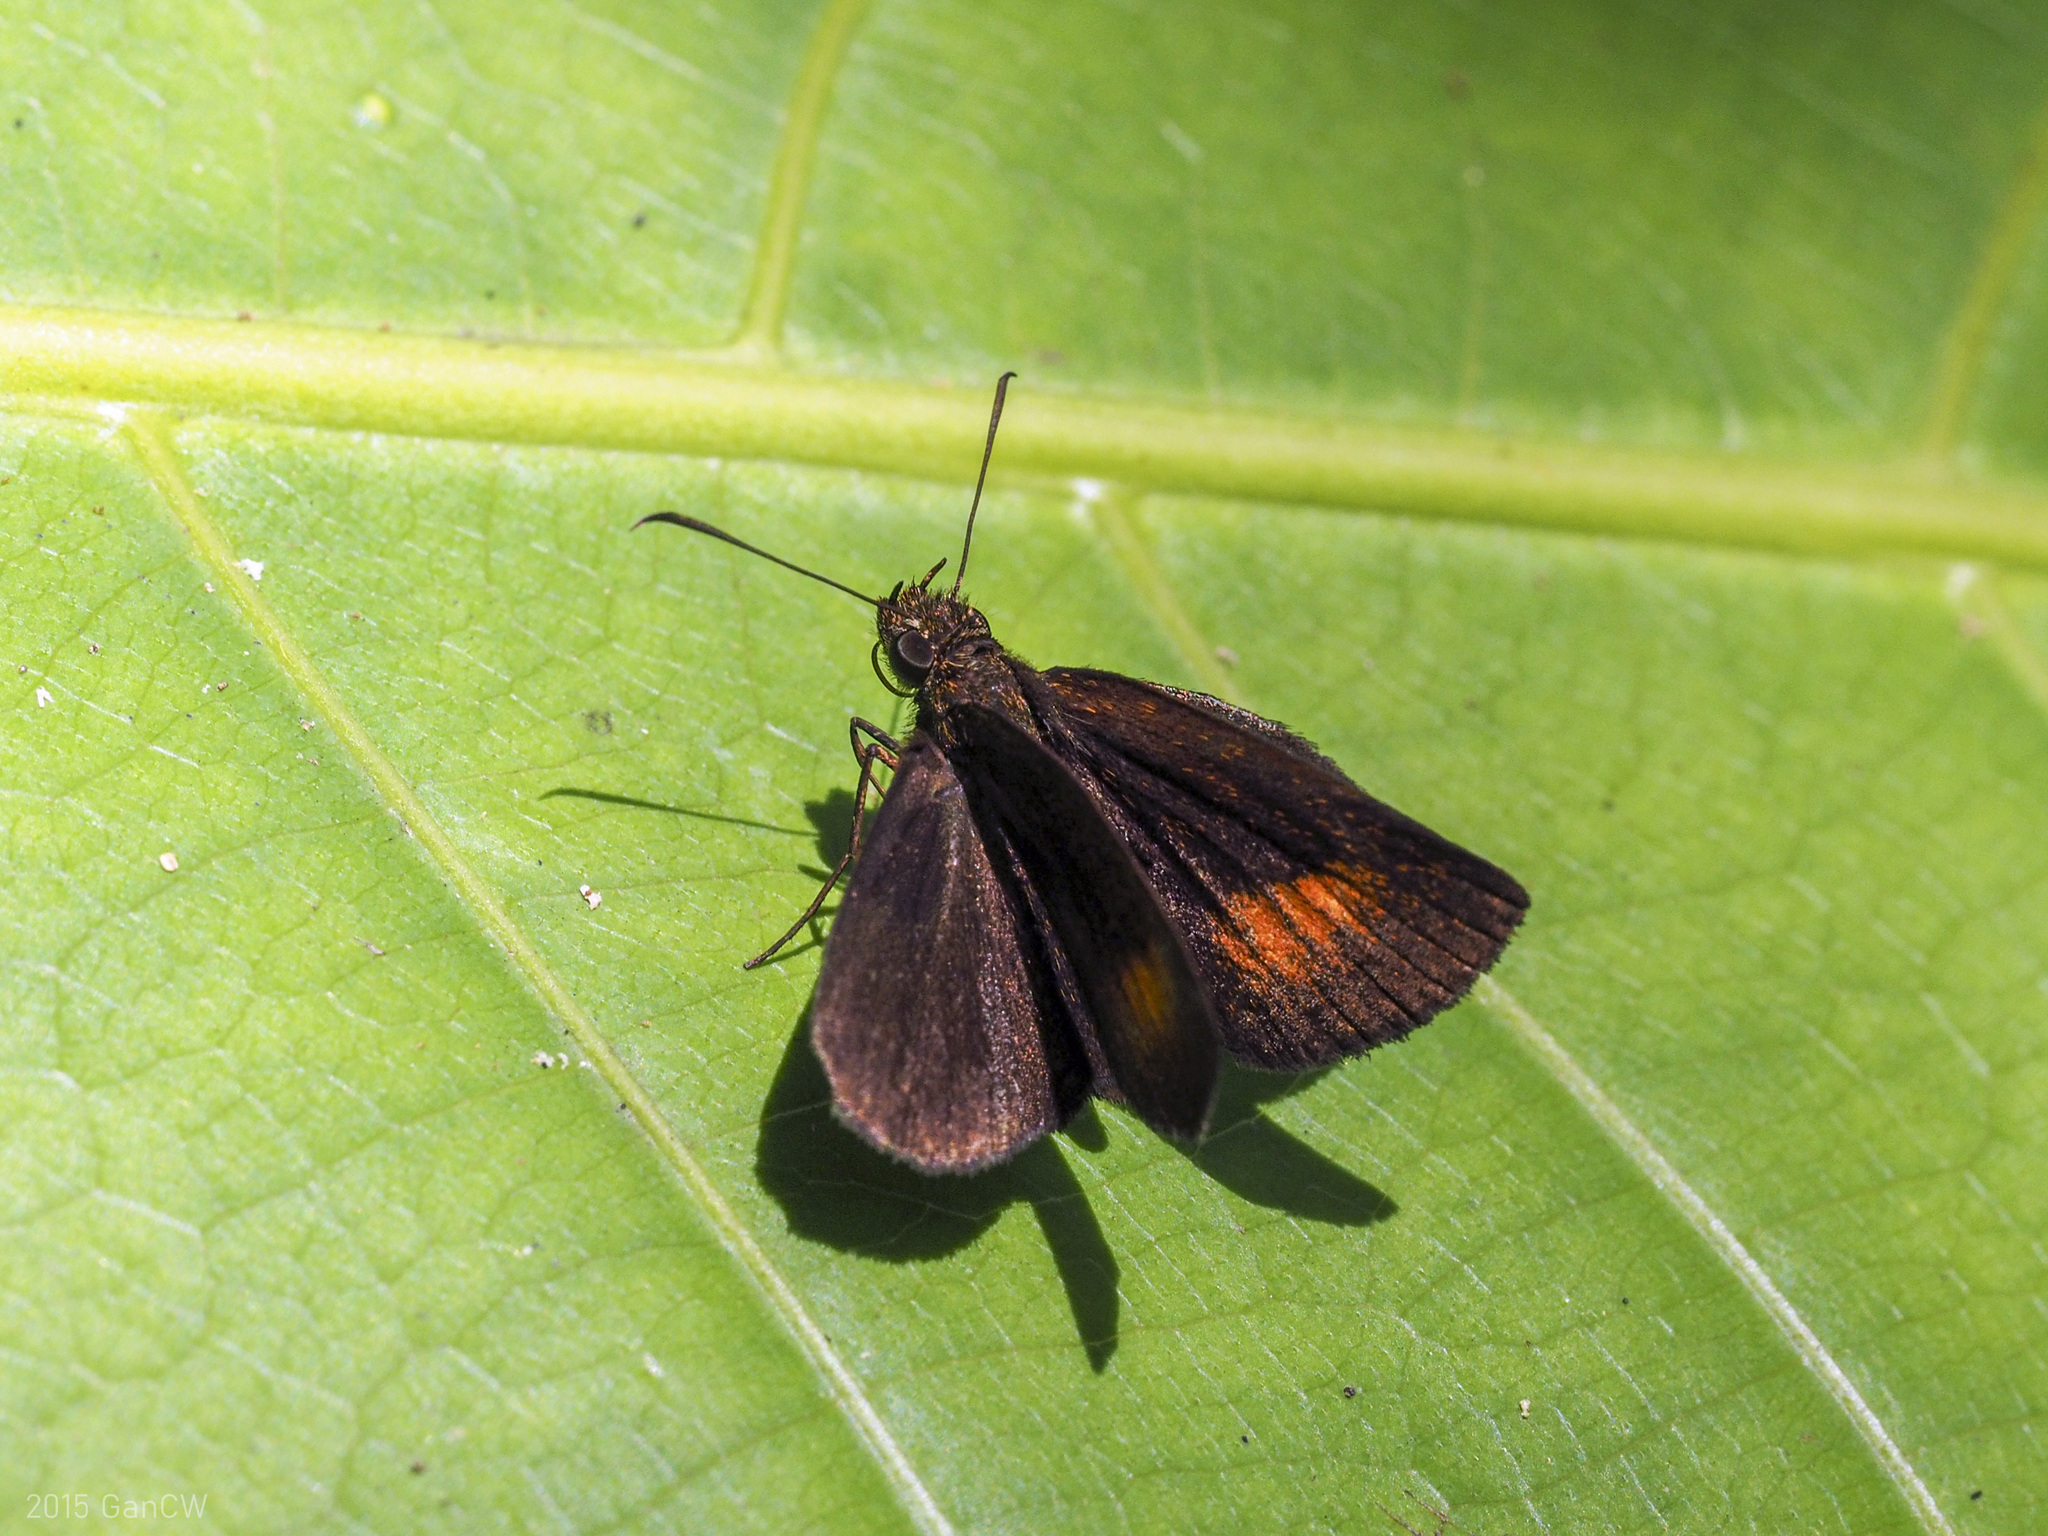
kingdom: Animalia
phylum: Arthropoda
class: Insecta
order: Lepidoptera
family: Hesperiidae
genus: Iambrix
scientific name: Iambrix Idmon obliquans
